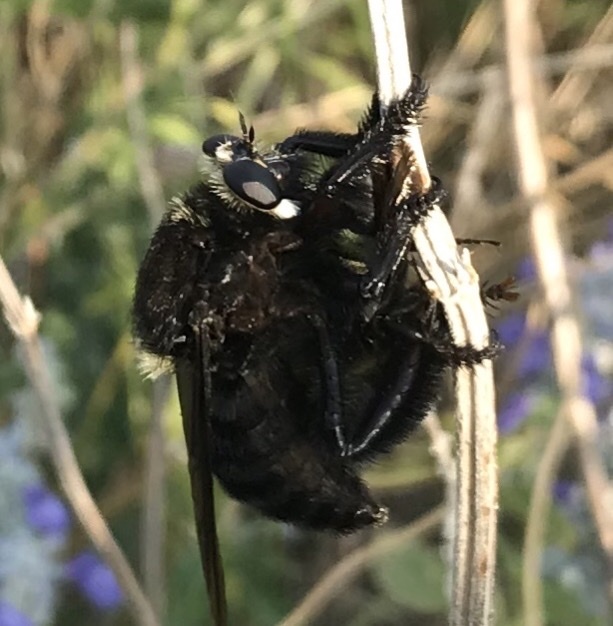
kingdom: Animalia
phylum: Arthropoda
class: Insecta
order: Diptera
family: Asilidae
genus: Mallophora
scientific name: Mallophora leschenaultii
